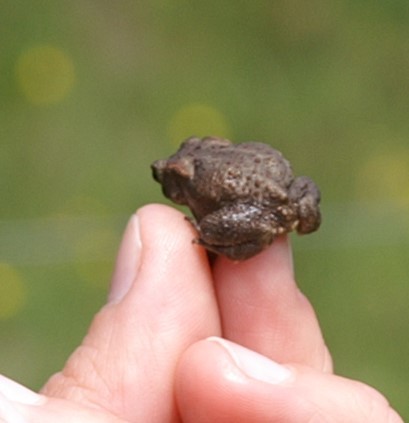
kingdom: Animalia
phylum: Chordata
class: Amphibia
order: Anura
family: Bufonidae
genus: Bufo
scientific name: Bufo bufo
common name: Common toad
